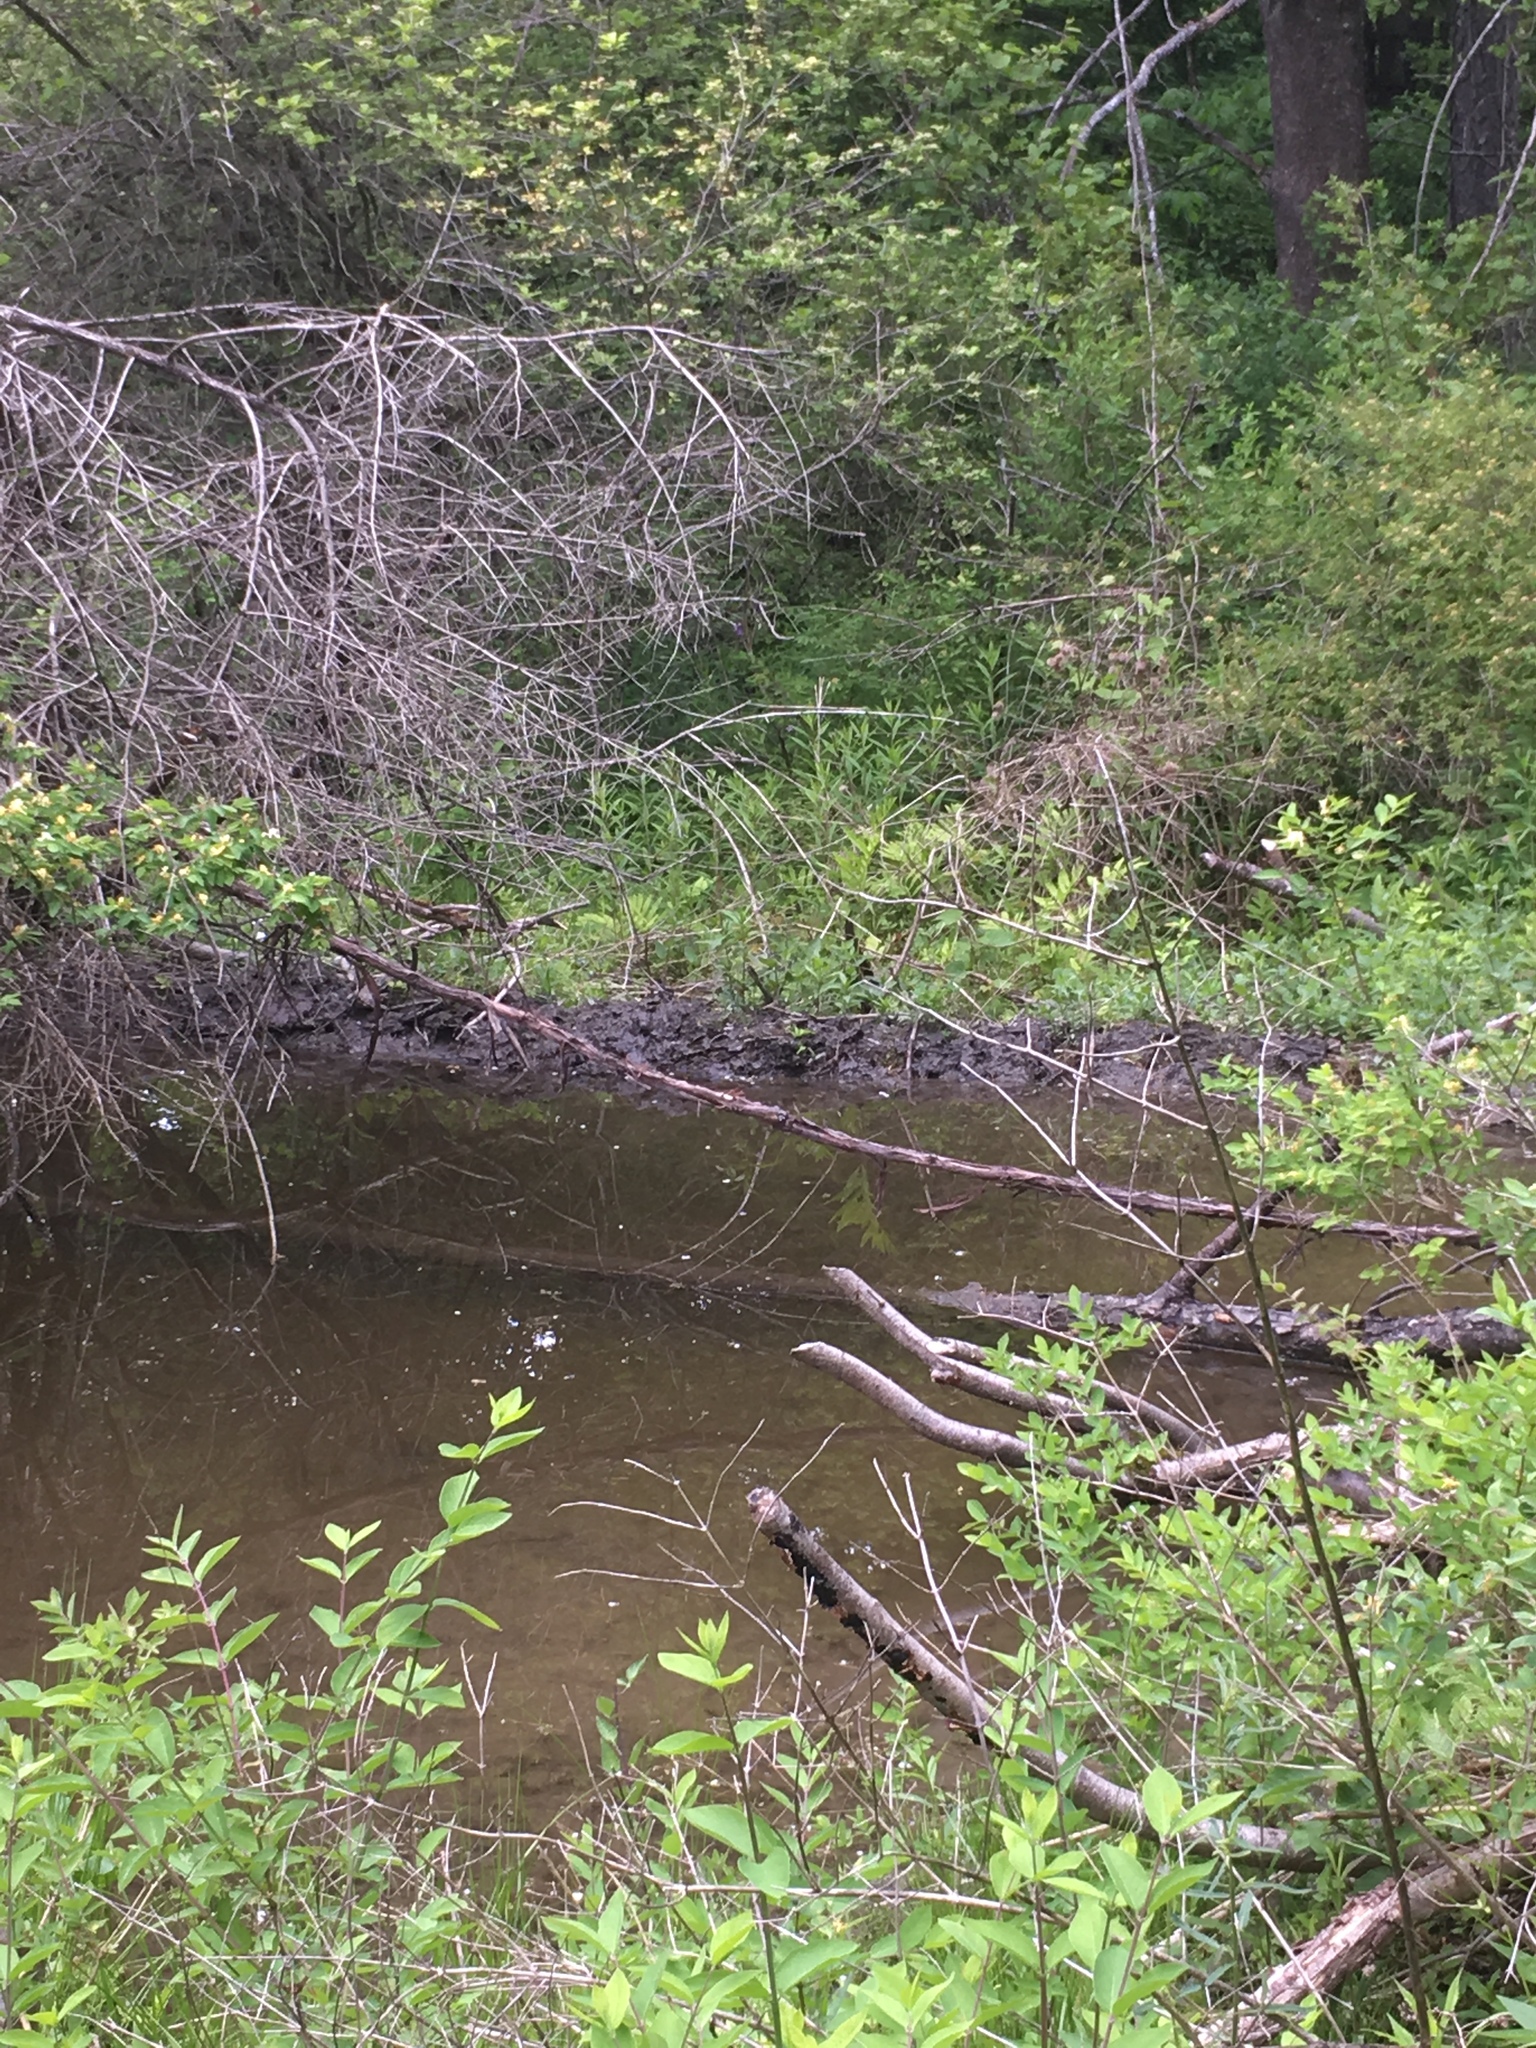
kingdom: Animalia
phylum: Chordata
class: Mammalia
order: Rodentia
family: Castoridae
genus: Castor
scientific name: Castor canadensis
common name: American beaver
